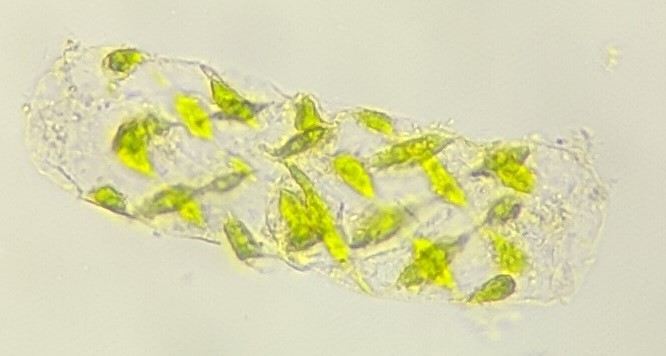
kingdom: Plantae
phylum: Charophyta
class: Zygnematophyceae
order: Zygnematales
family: Zygnemataceae
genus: Spirogyra
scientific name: Spirogyra
